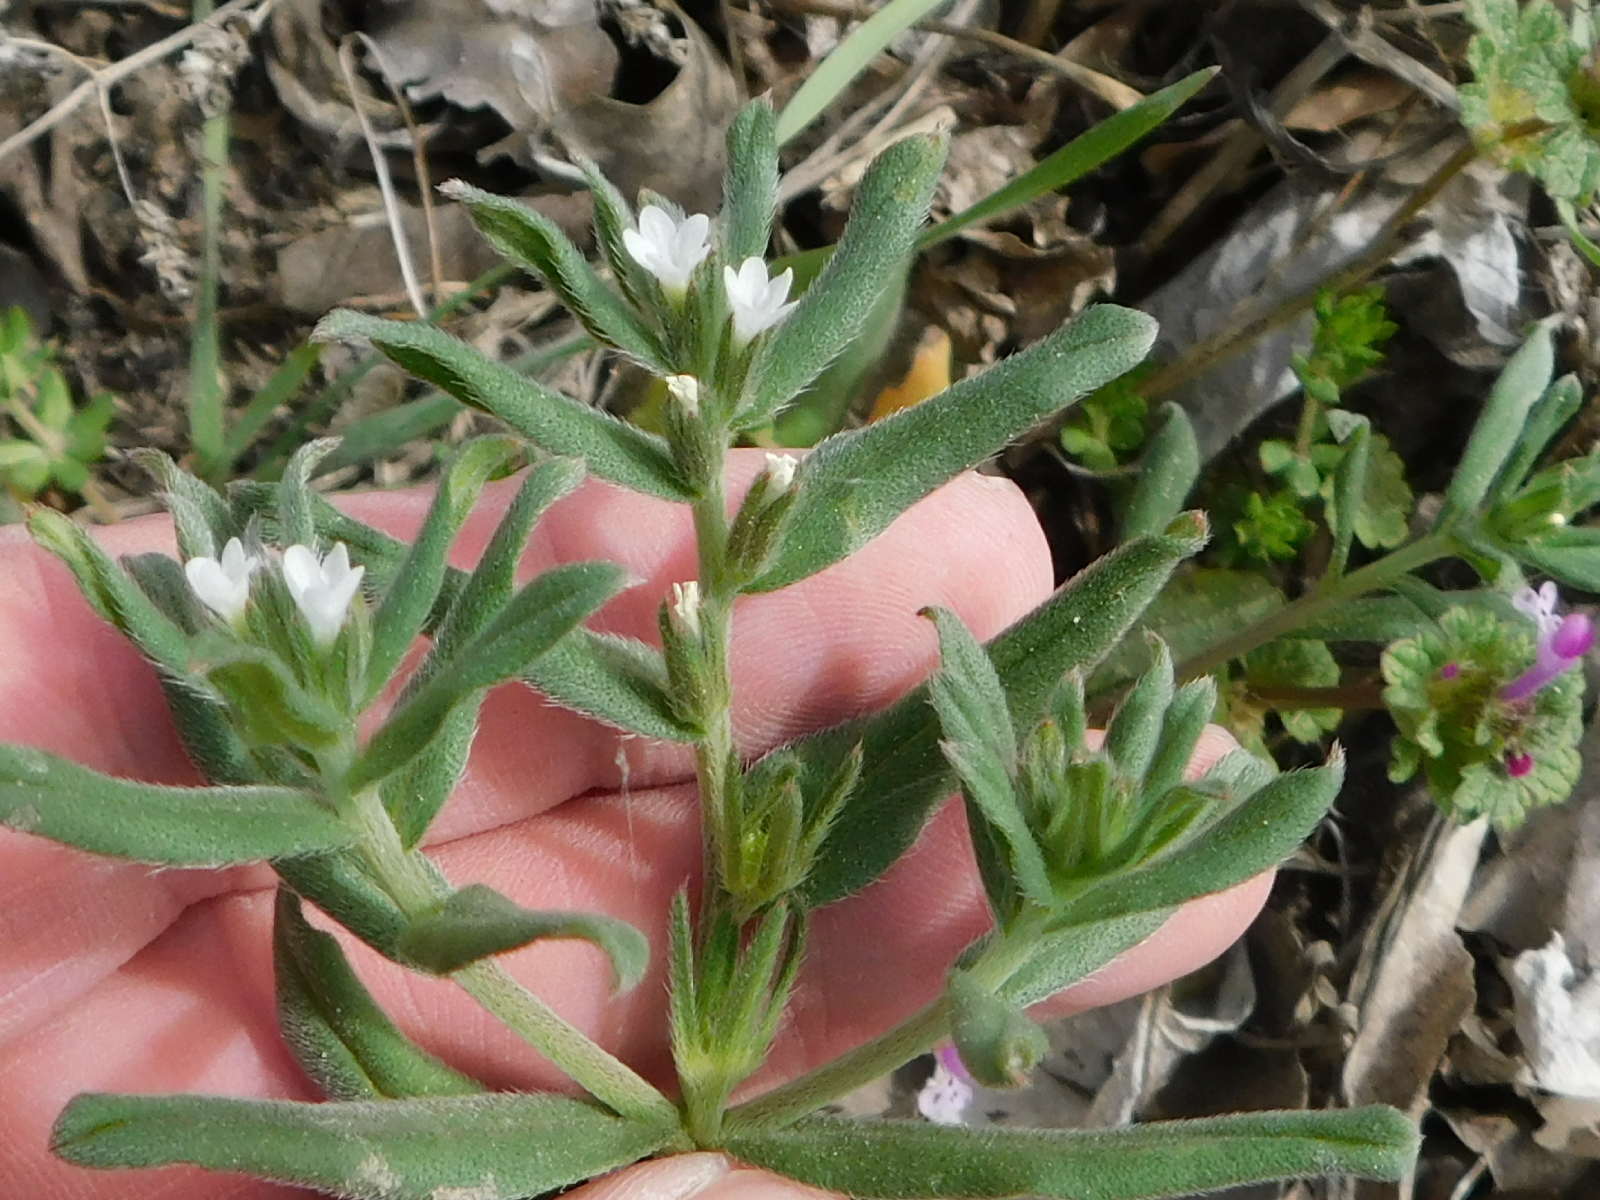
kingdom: Plantae
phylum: Tracheophyta
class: Magnoliopsida
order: Boraginales
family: Boraginaceae
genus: Buglossoides
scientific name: Buglossoides arvensis
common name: Corn gromwell
